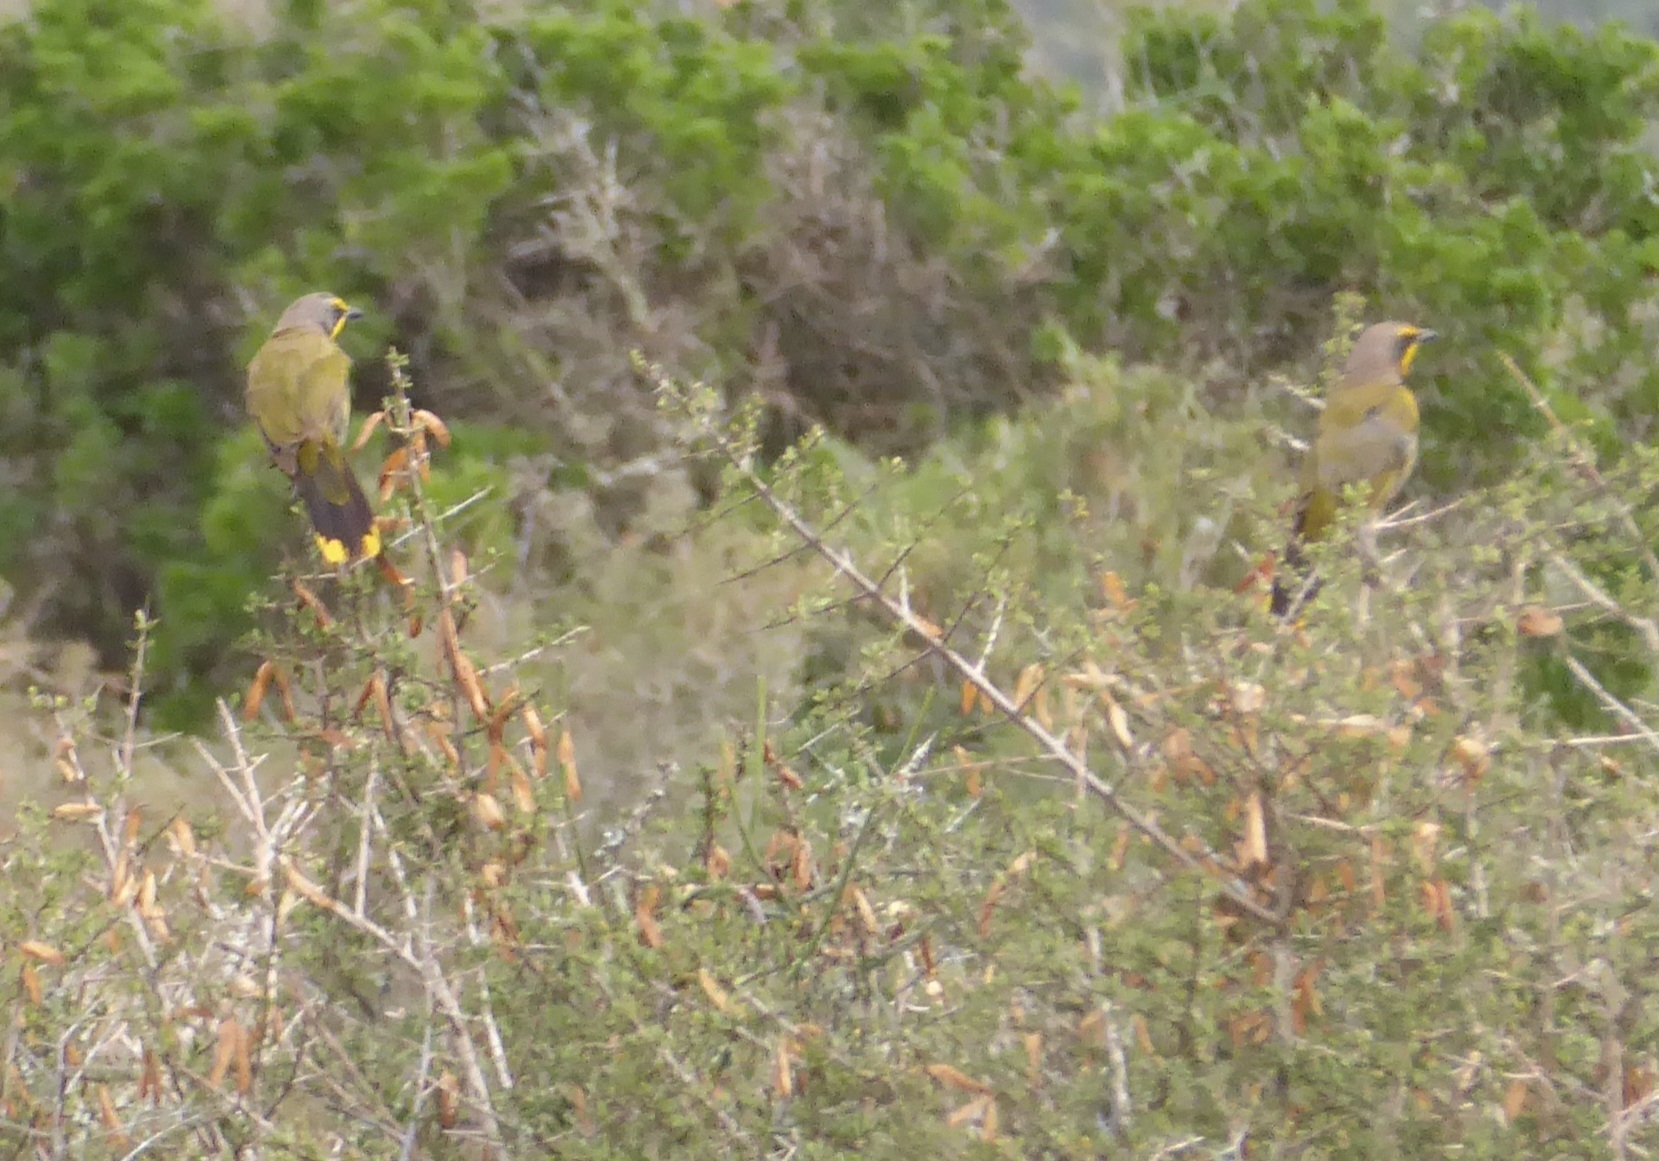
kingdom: Animalia
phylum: Chordata
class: Aves
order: Passeriformes
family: Malaconotidae
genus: Telophorus
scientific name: Telophorus zeylonus
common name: Bokmakierie
